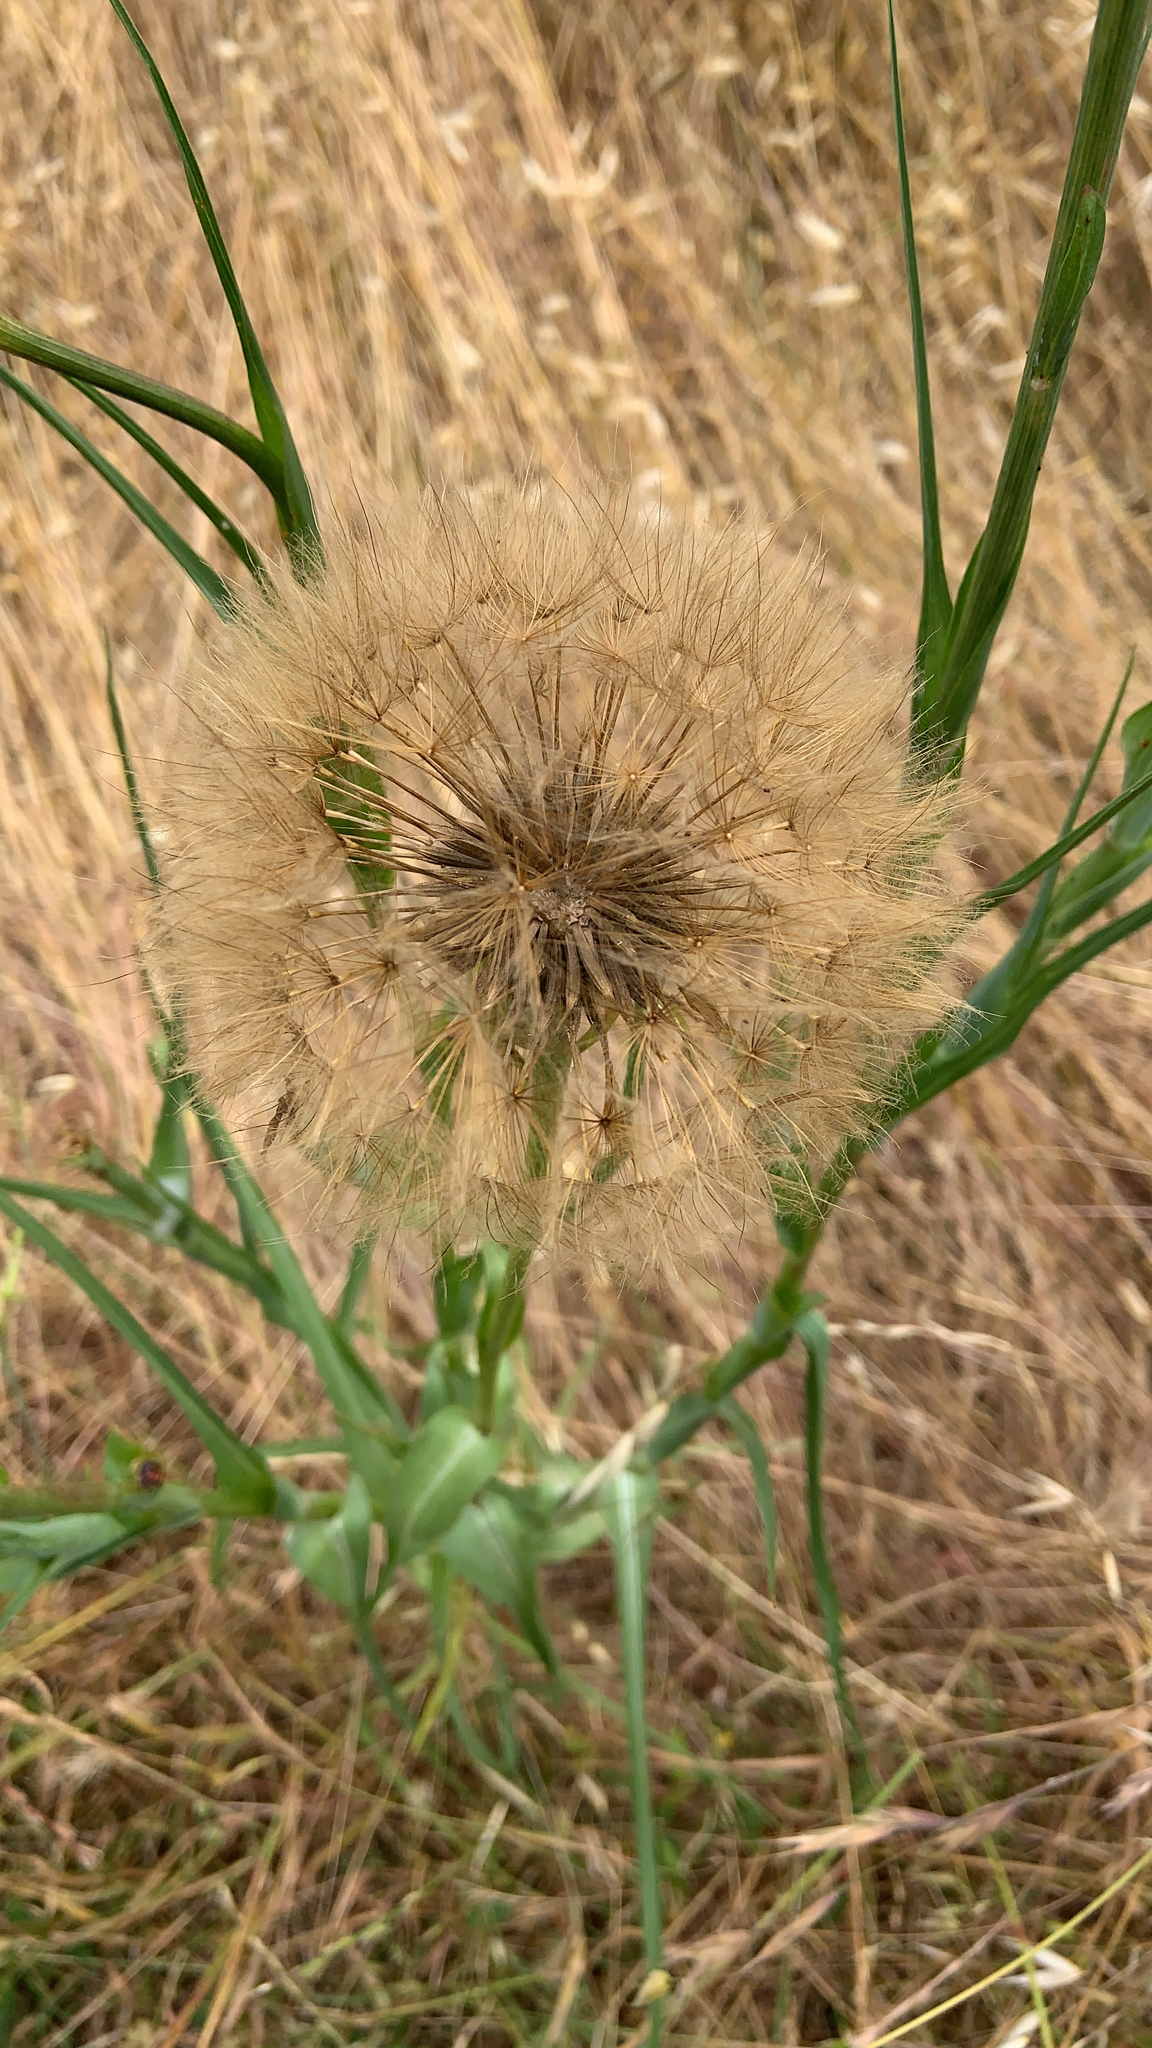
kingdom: Plantae
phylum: Tracheophyta
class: Magnoliopsida
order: Asterales
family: Asteraceae
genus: Tragopogon
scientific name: Tragopogon porrifolius
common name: Salsify
